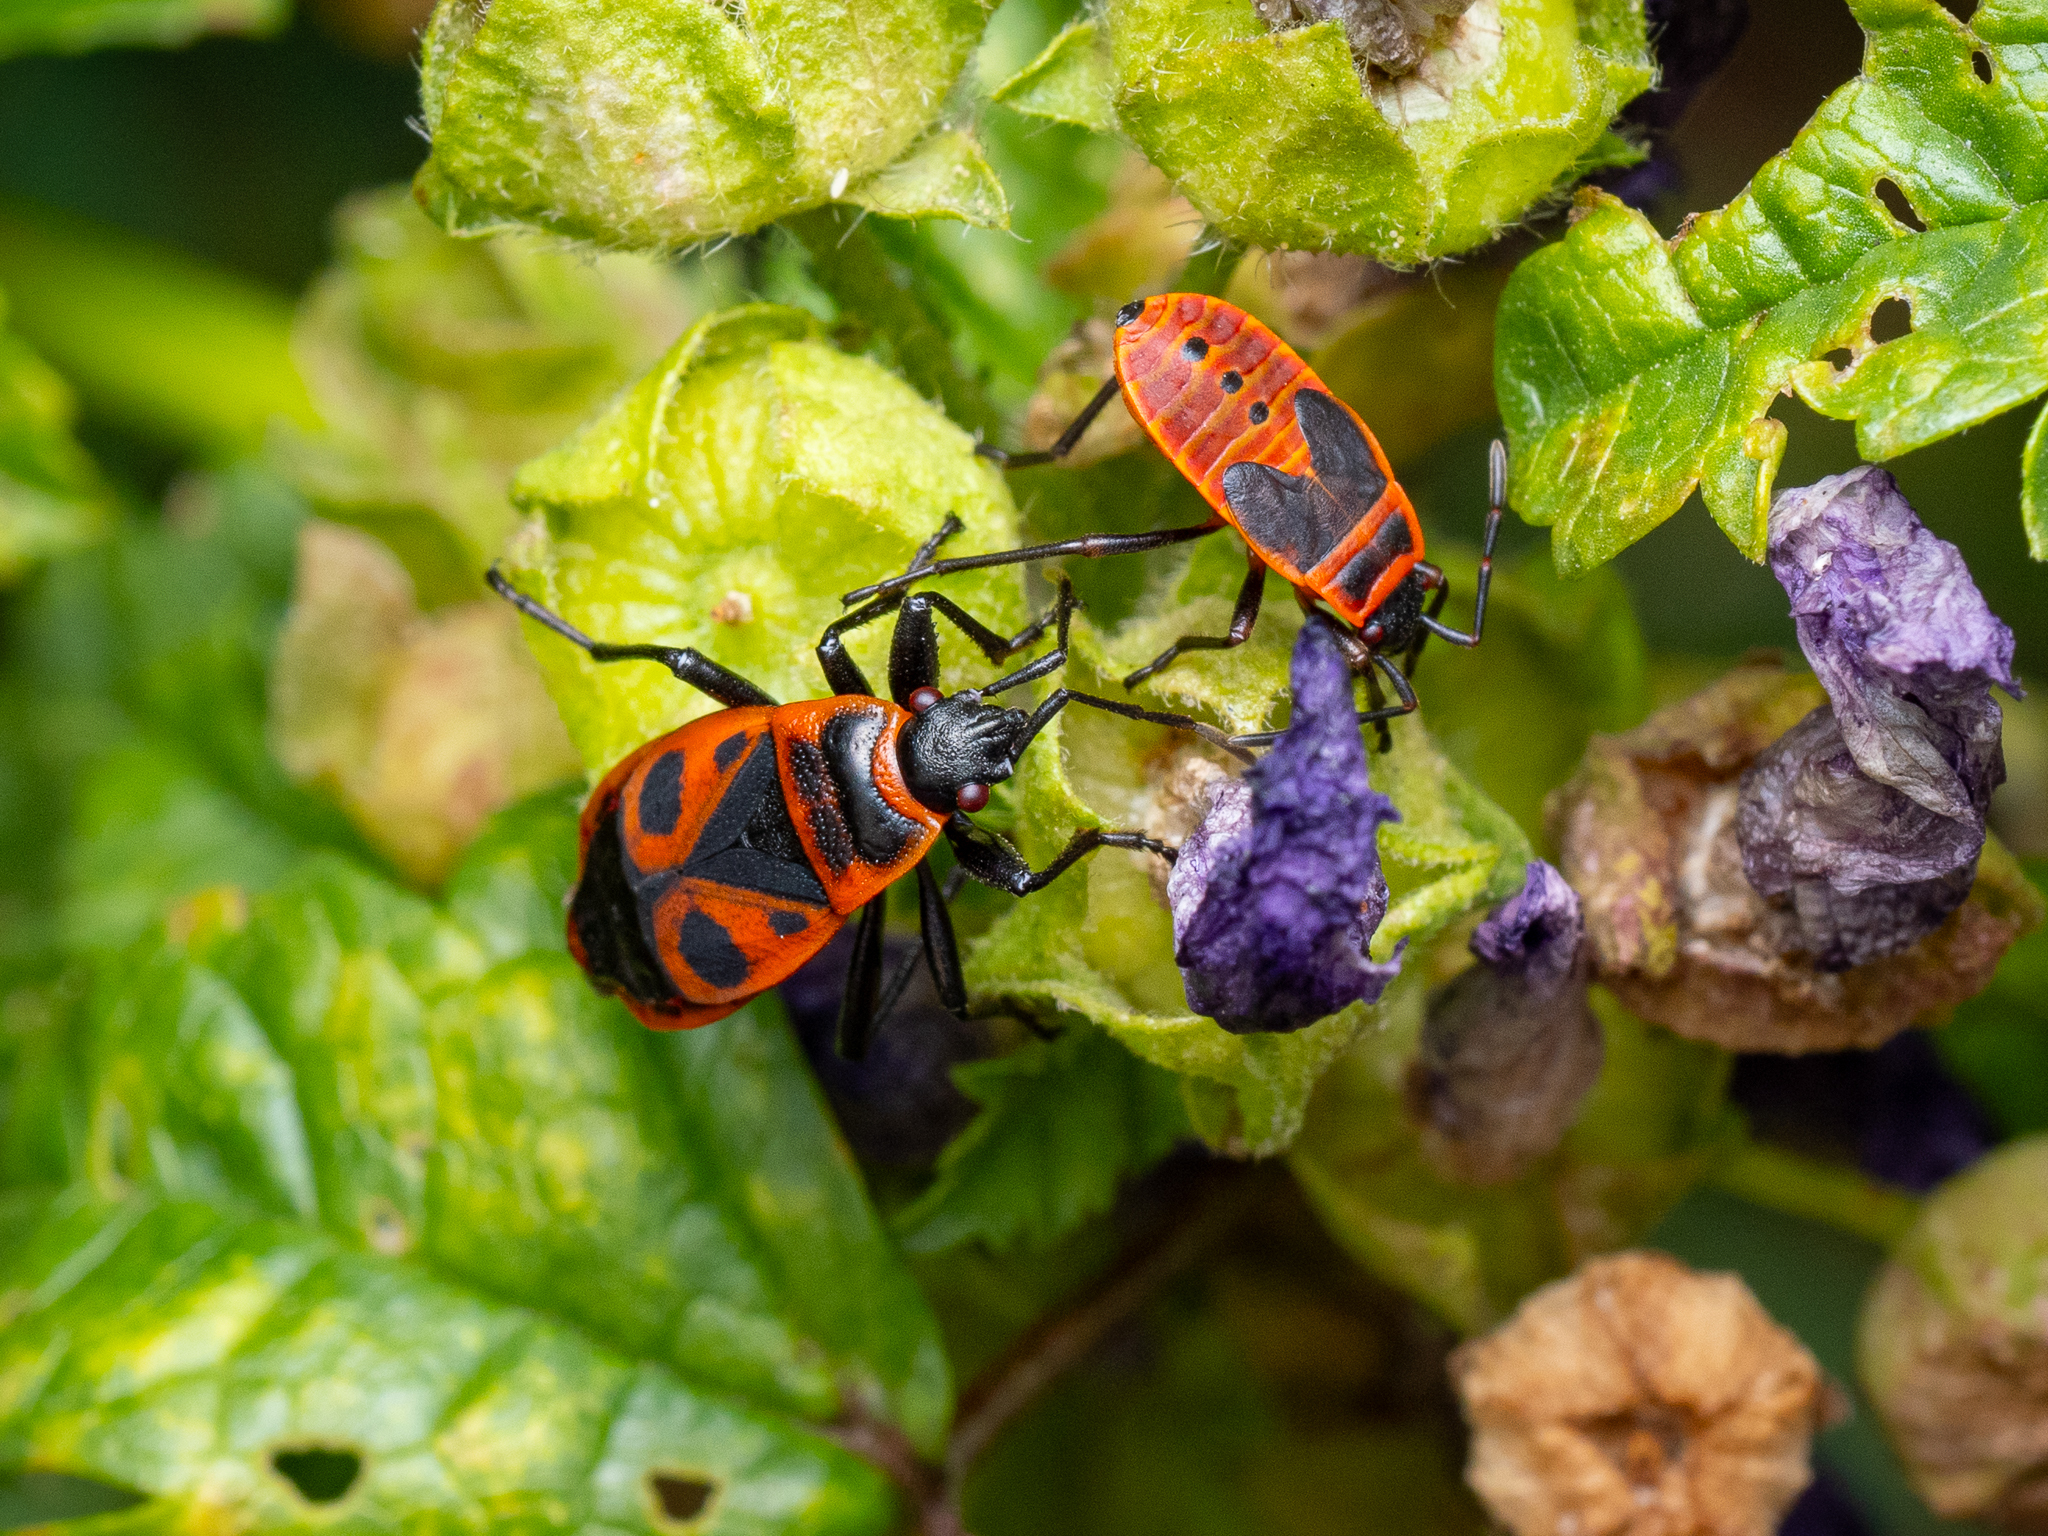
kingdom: Animalia
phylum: Arthropoda
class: Insecta
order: Hemiptera
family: Pyrrhocoridae
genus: Pyrrhocoris
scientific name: Pyrrhocoris apterus
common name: Firebug
